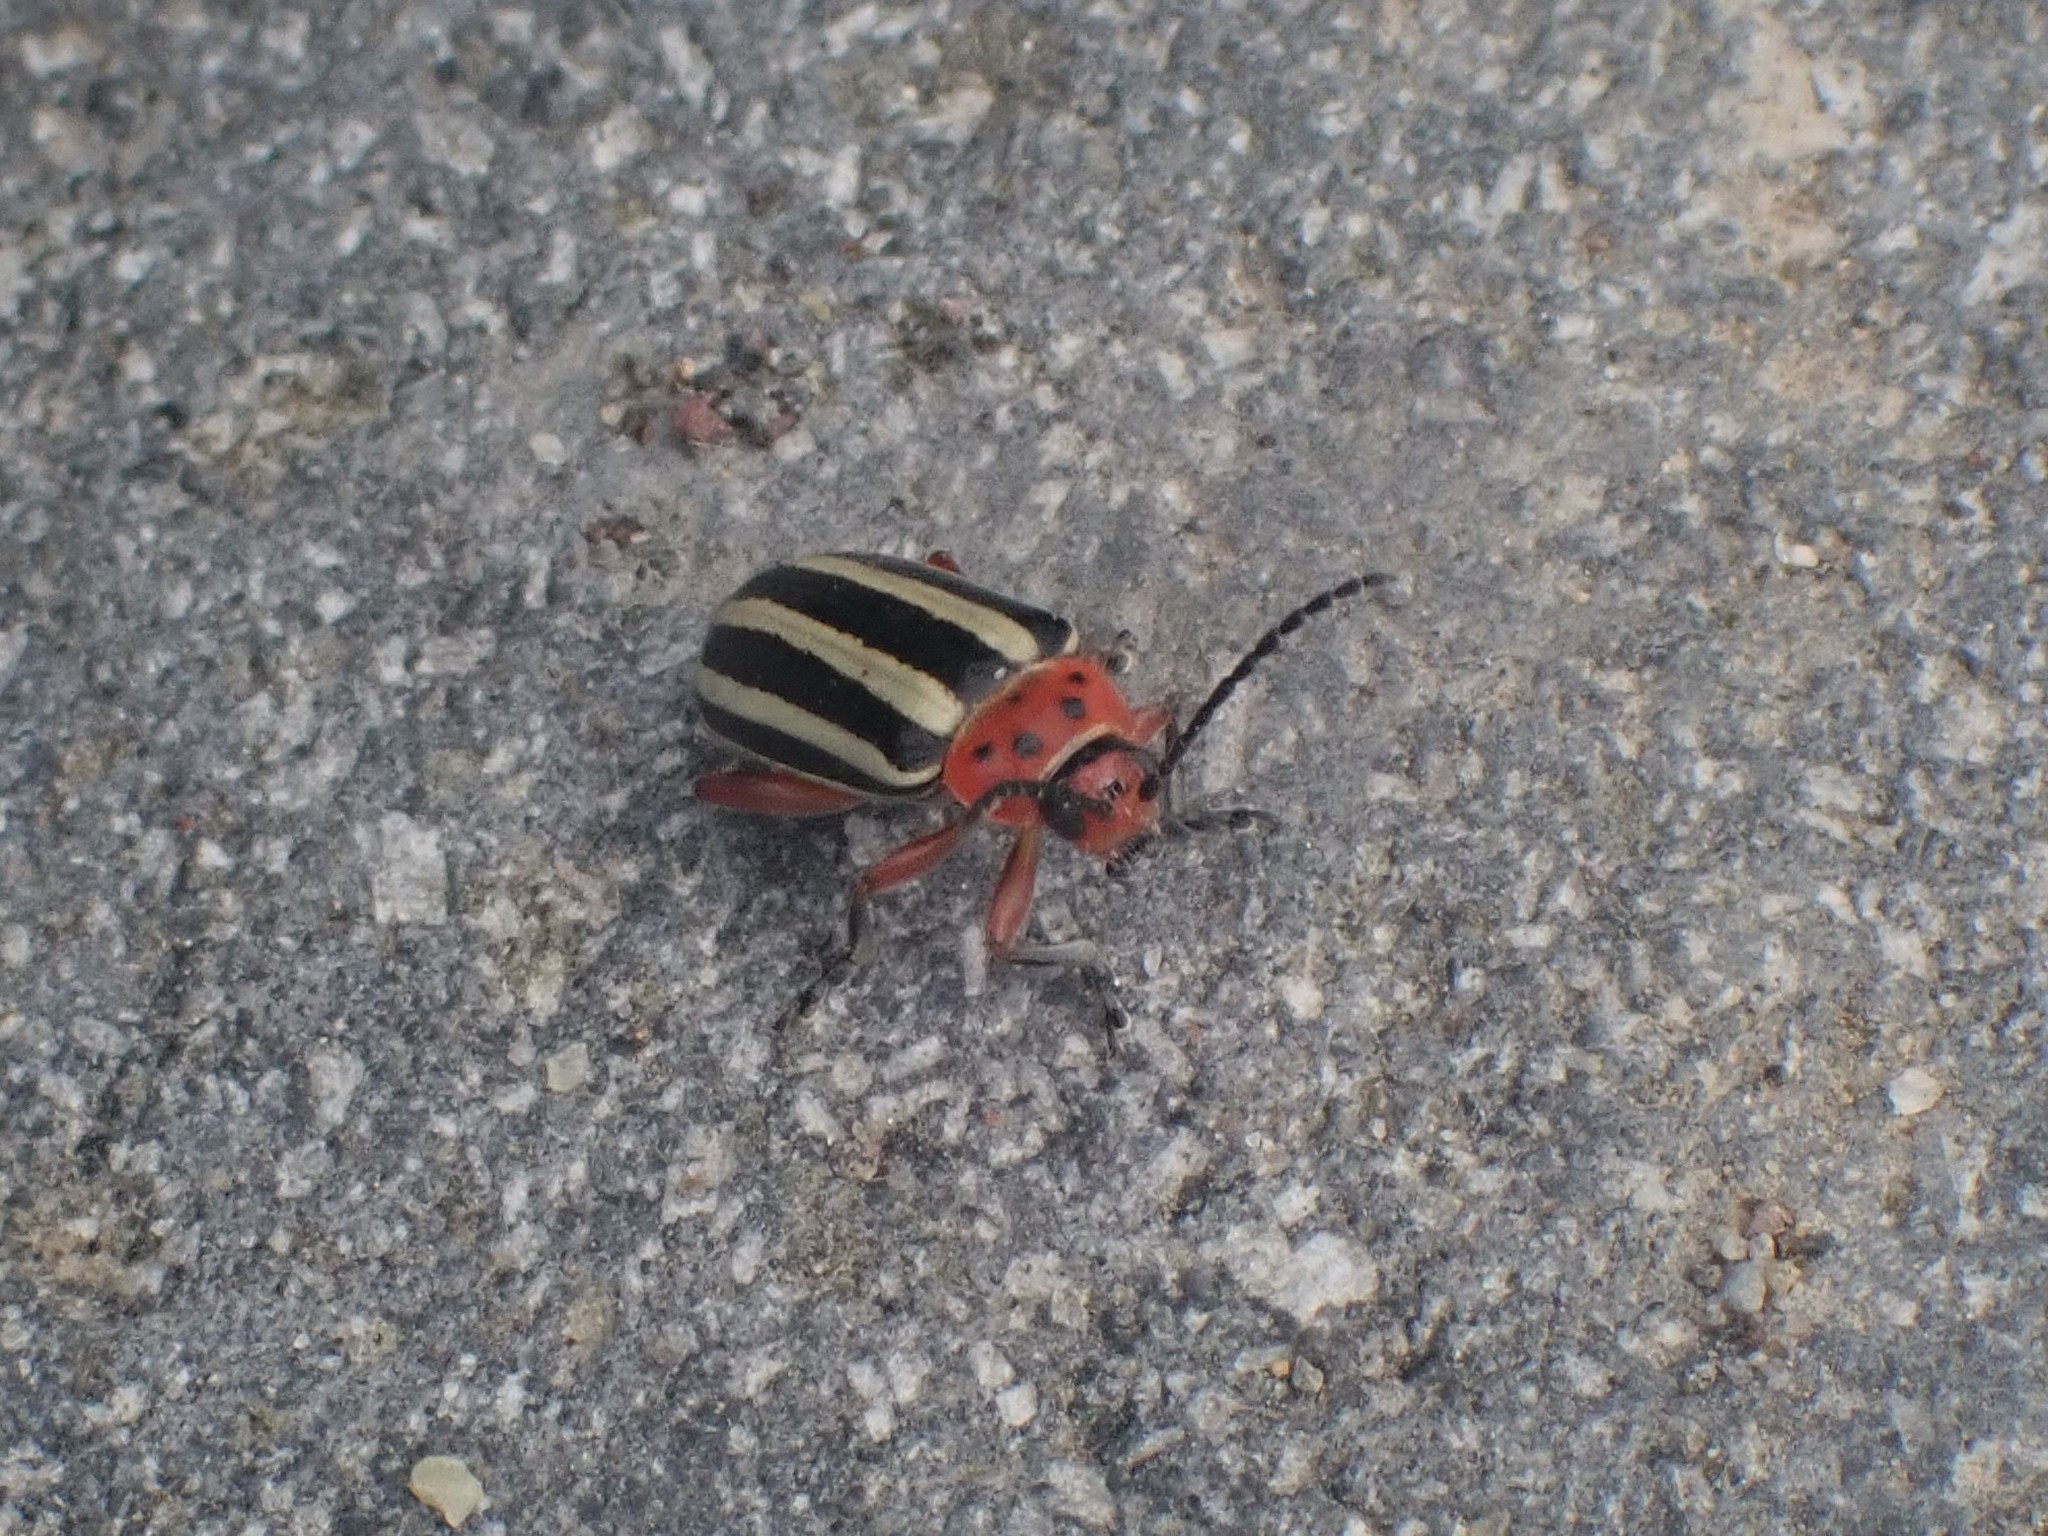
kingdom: Animalia
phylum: Arthropoda
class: Insecta
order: Coleoptera
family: Chrysomelidae
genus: Disonycha
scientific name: Disonycha latiovittata
